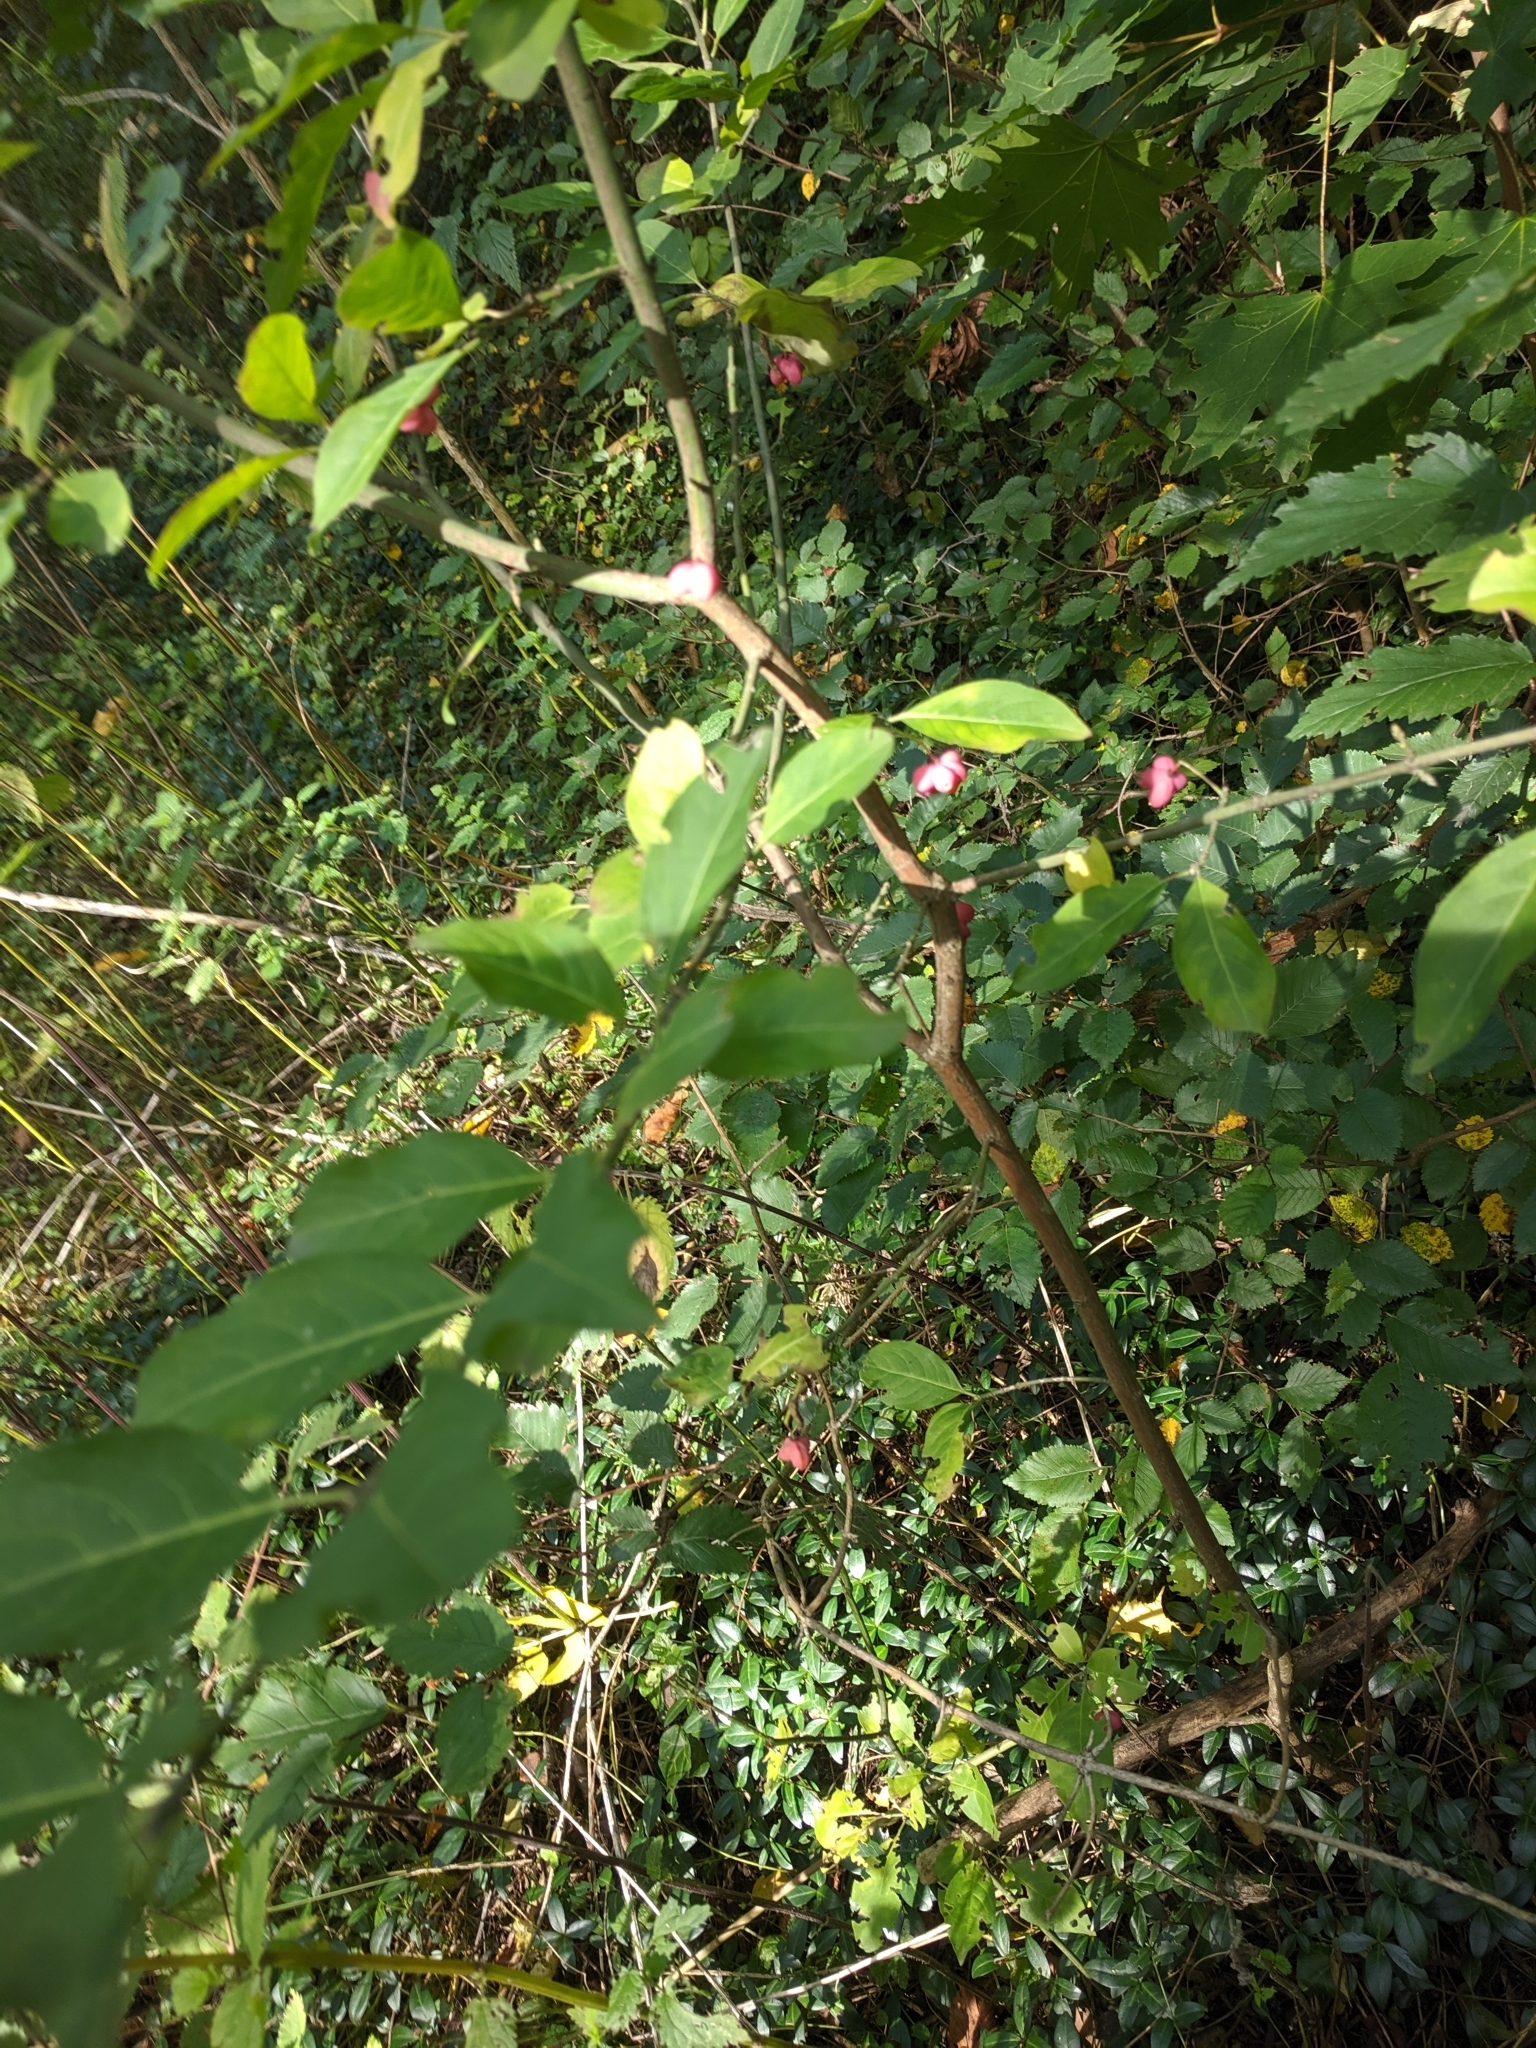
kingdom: Plantae
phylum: Tracheophyta
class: Magnoliopsida
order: Celastrales
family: Celastraceae
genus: Euonymus
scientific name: Euonymus europaeus
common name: Spindle
